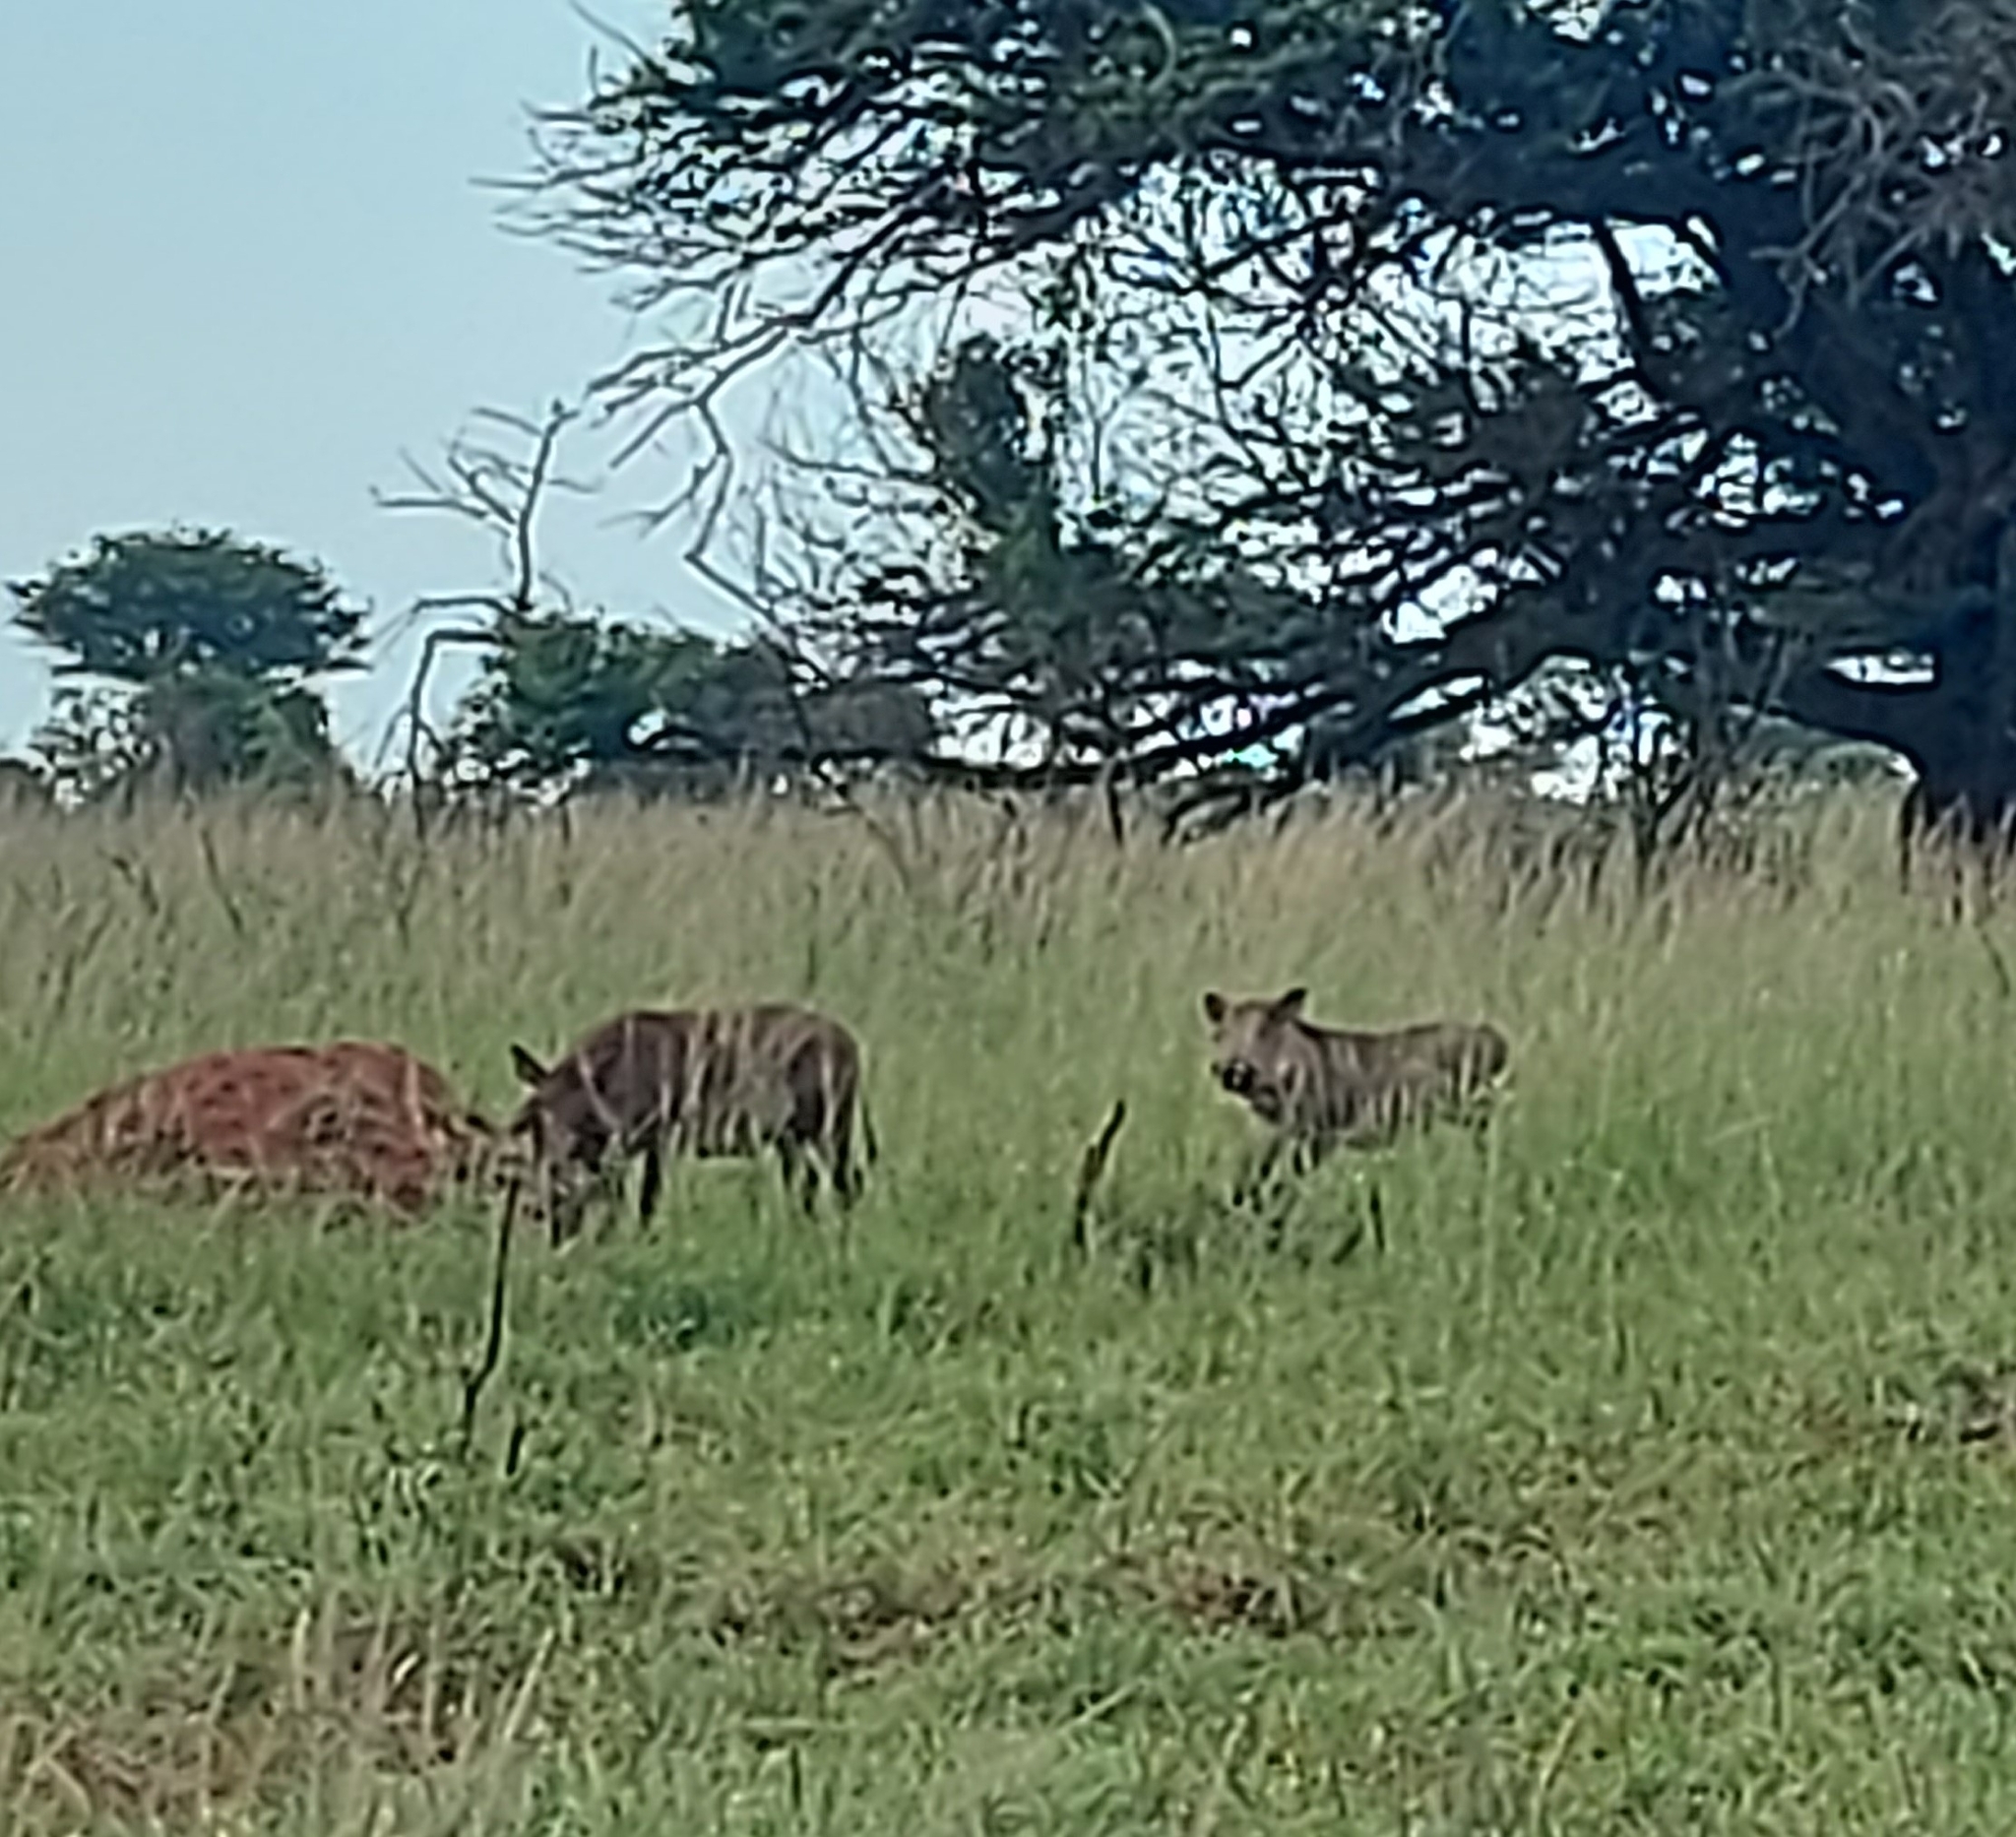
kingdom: Animalia
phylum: Chordata
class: Mammalia
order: Artiodactyla
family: Suidae
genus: Phacochoerus
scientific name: Phacochoerus africanus
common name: Common warthog
